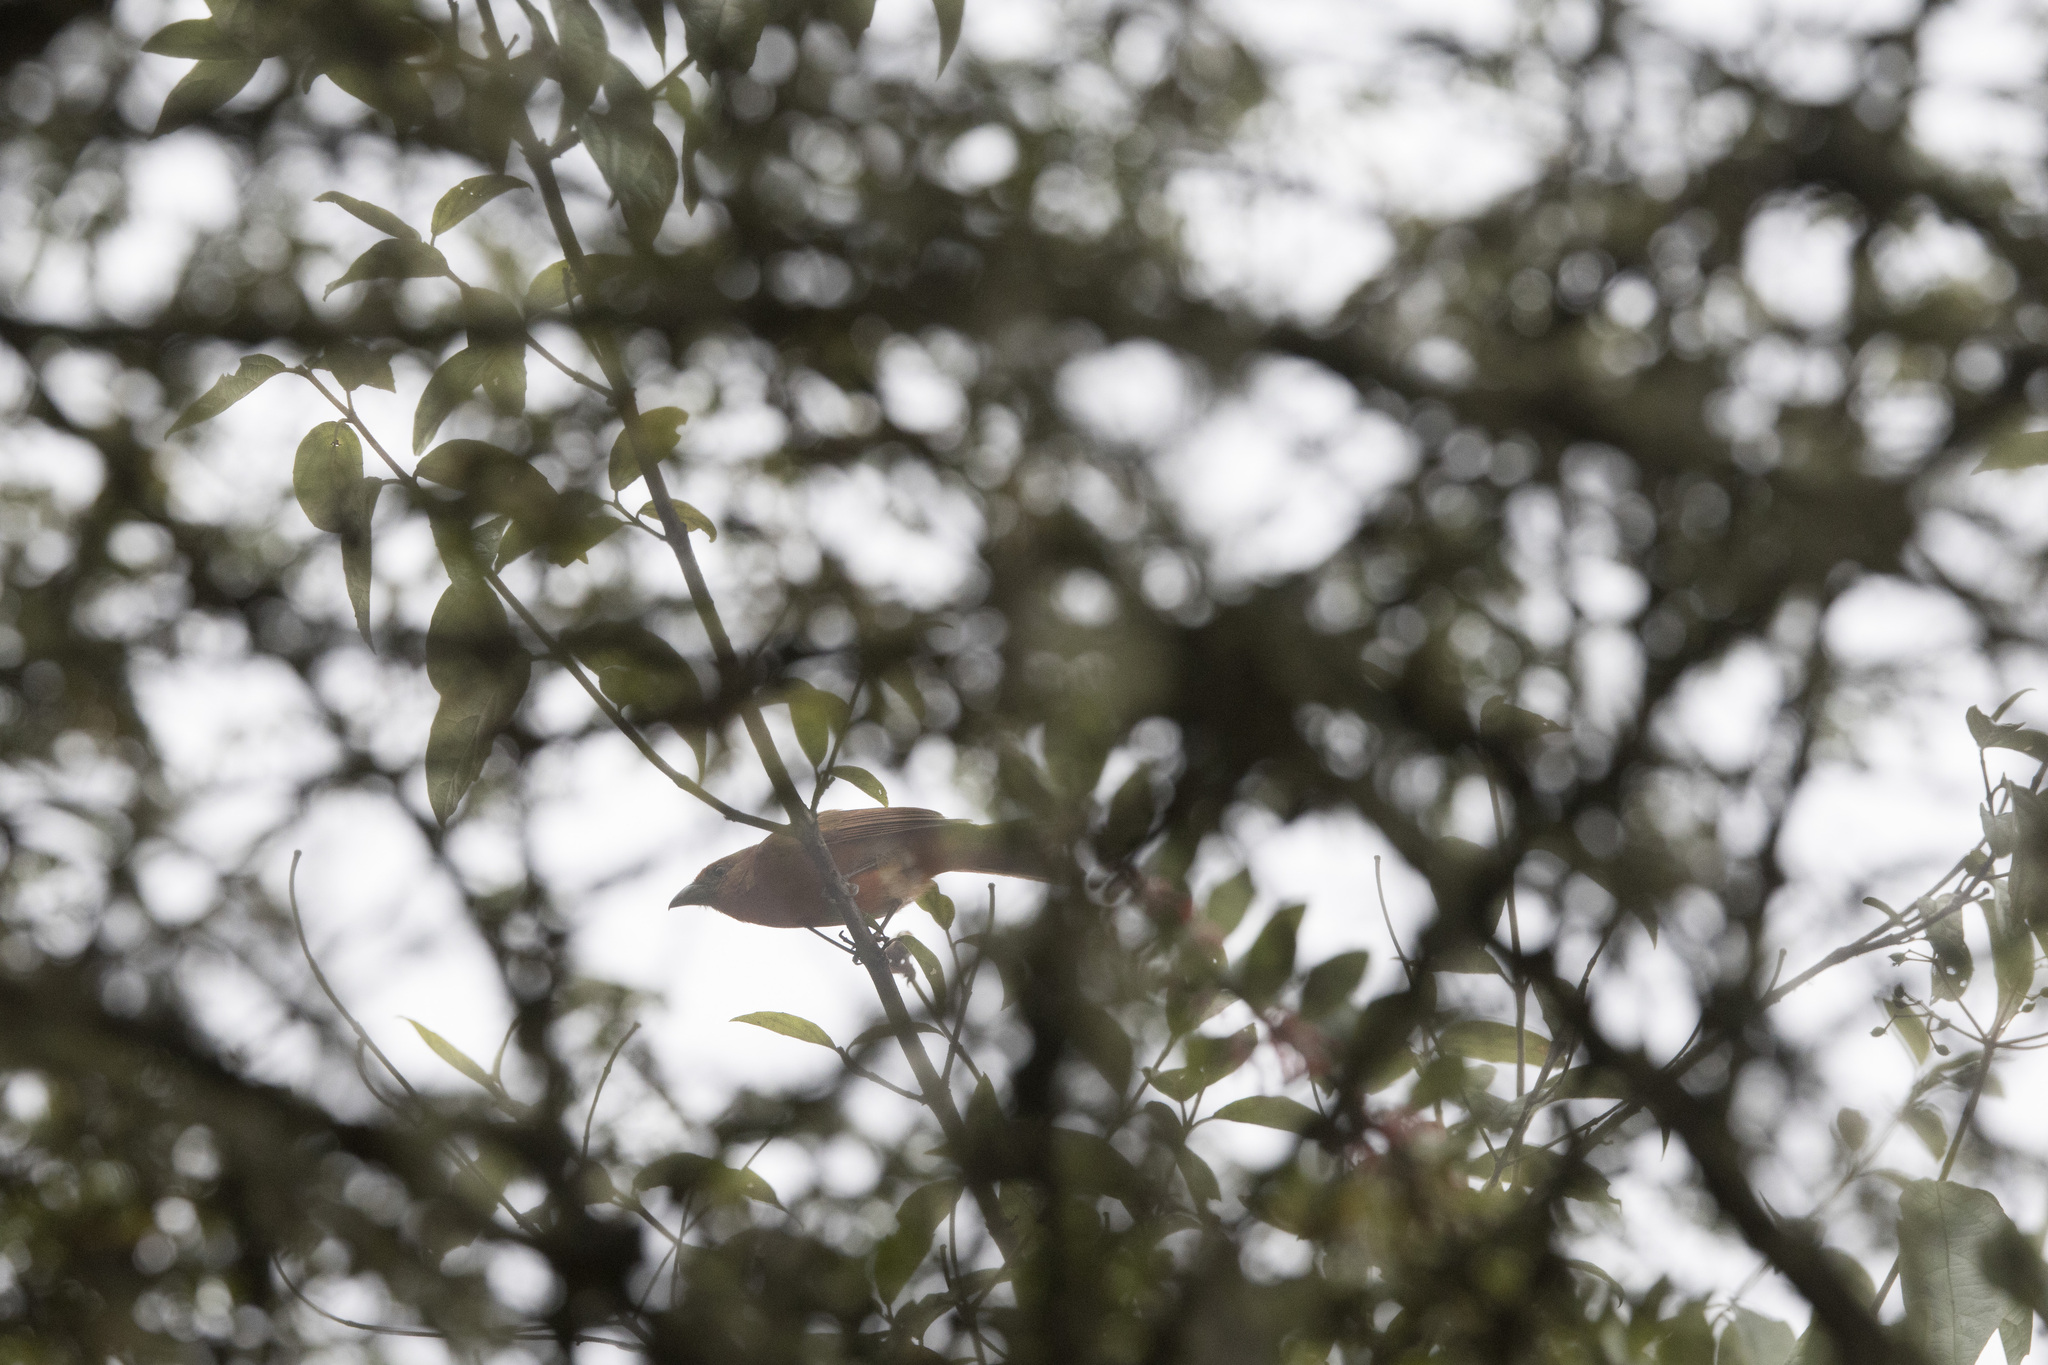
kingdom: Animalia
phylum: Chordata
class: Aves
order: Passeriformes
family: Cardinalidae
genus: Piranga
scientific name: Piranga flava
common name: Red tanager
